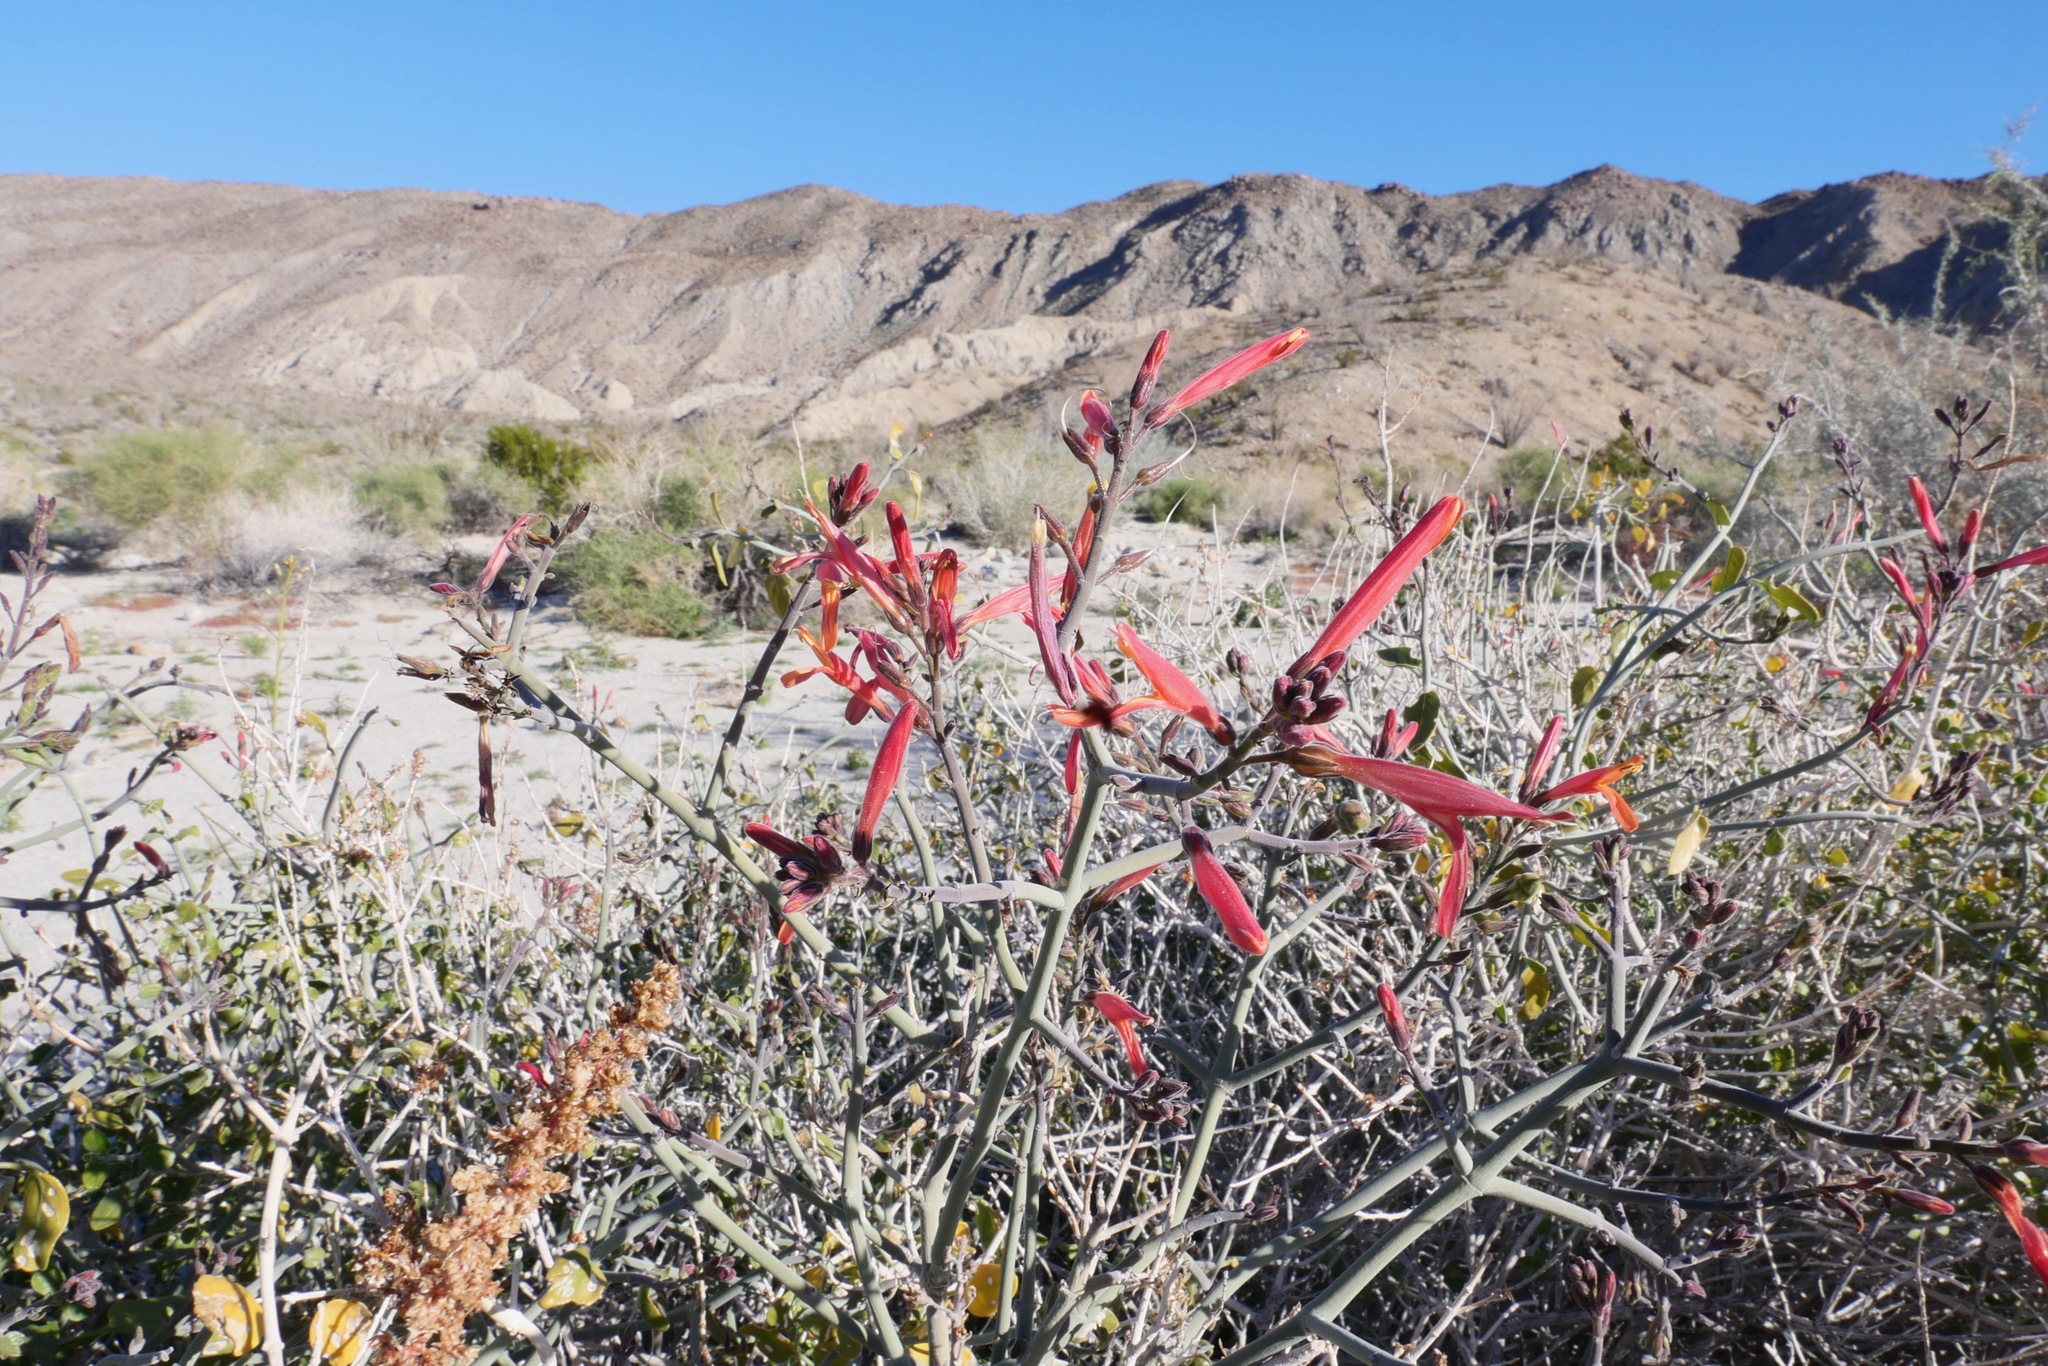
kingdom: Plantae
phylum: Tracheophyta
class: Magnoliopsida
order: Lamiales
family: Acanthaceae
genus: Justicia
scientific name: Justicia californica
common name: Chuparosa-honeysuckle
